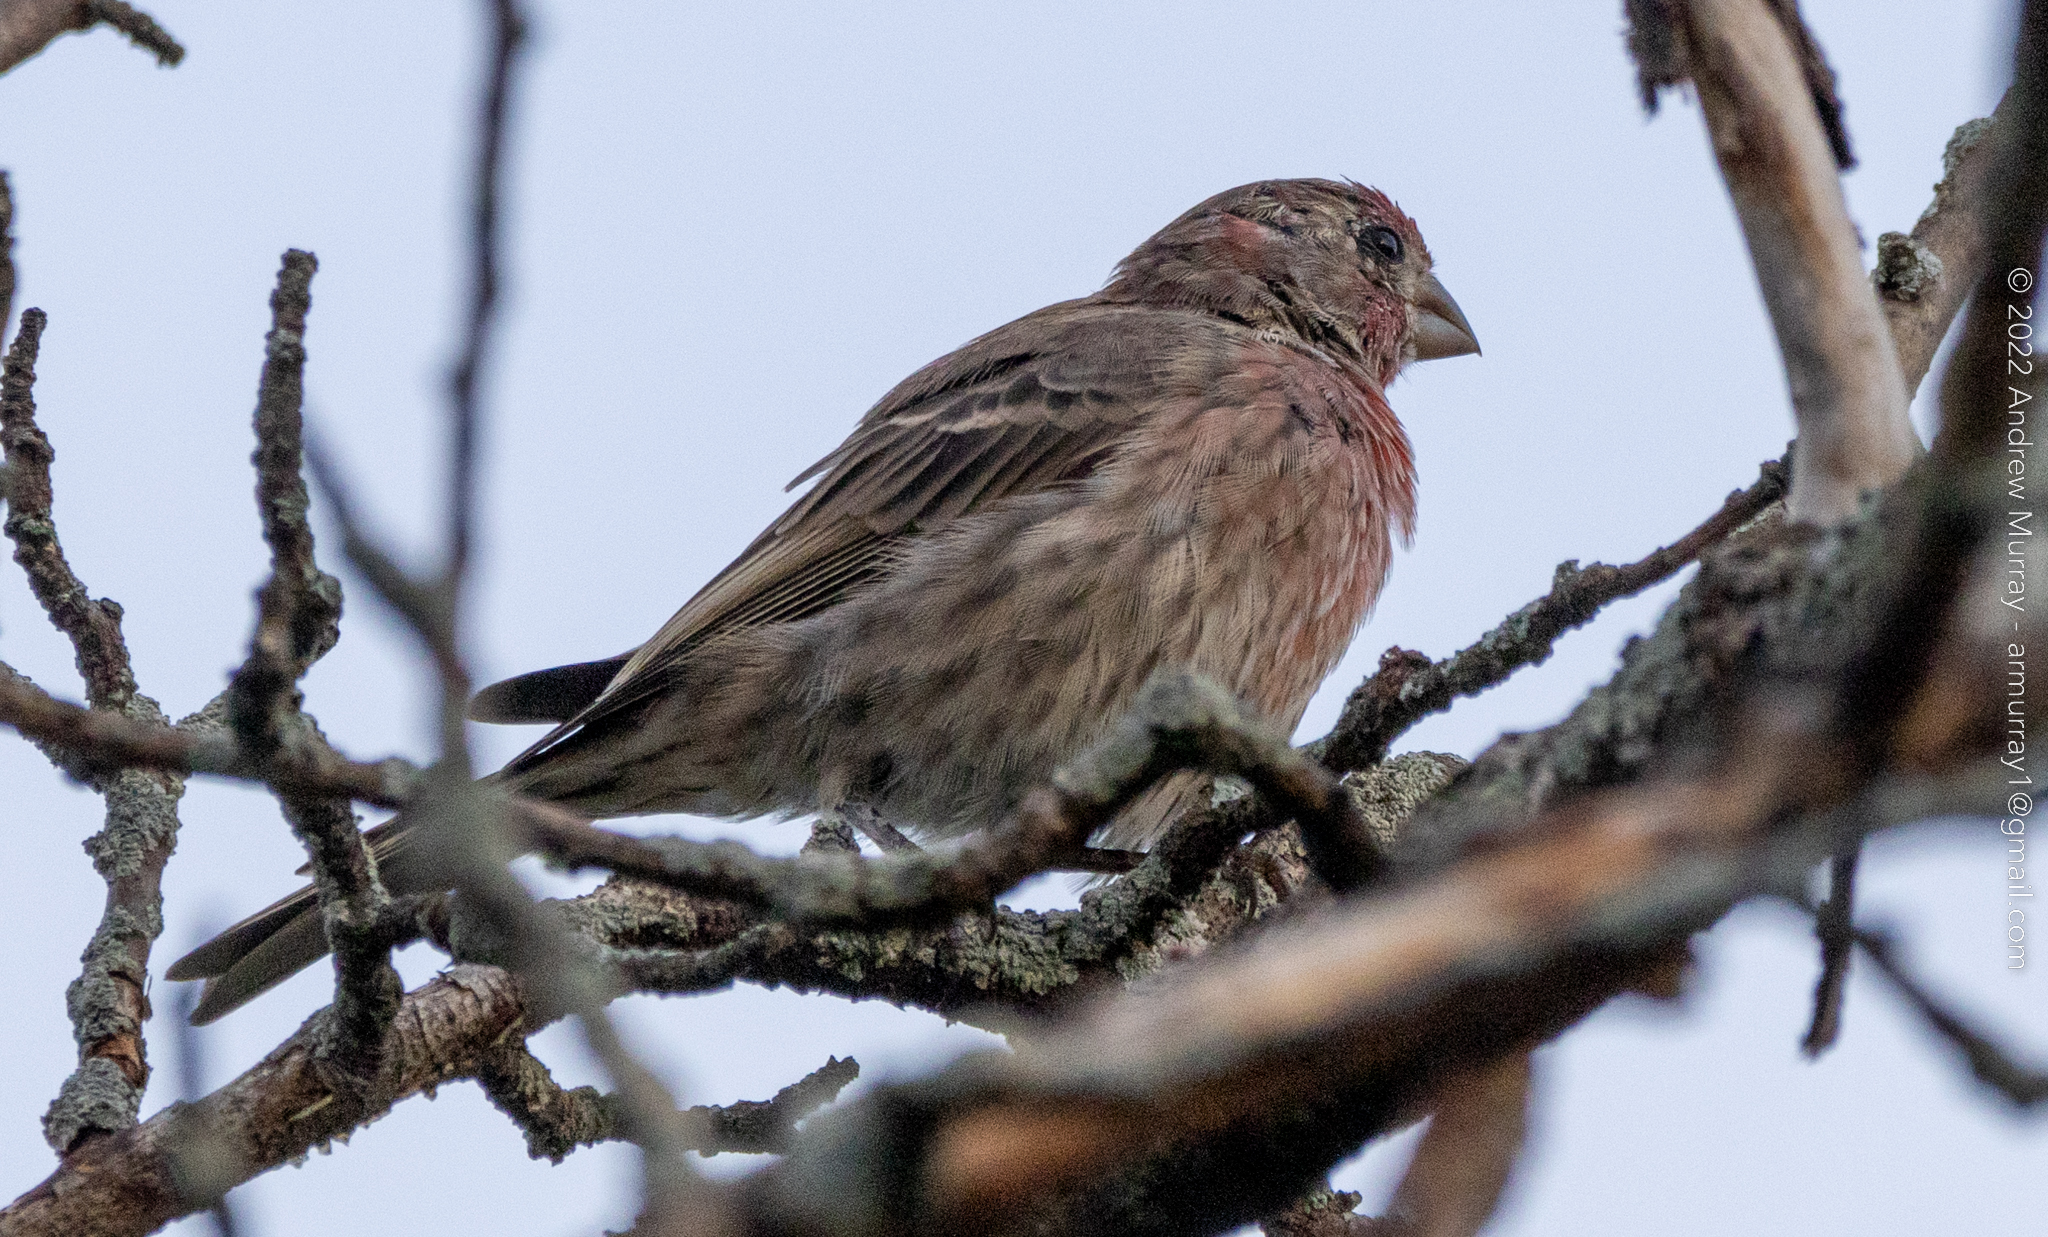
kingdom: Animalia
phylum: Chordata
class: Aves
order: Passeriformes
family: Fringillidae
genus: Haemorhous
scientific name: Haemorhous mexicanus
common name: House finch
